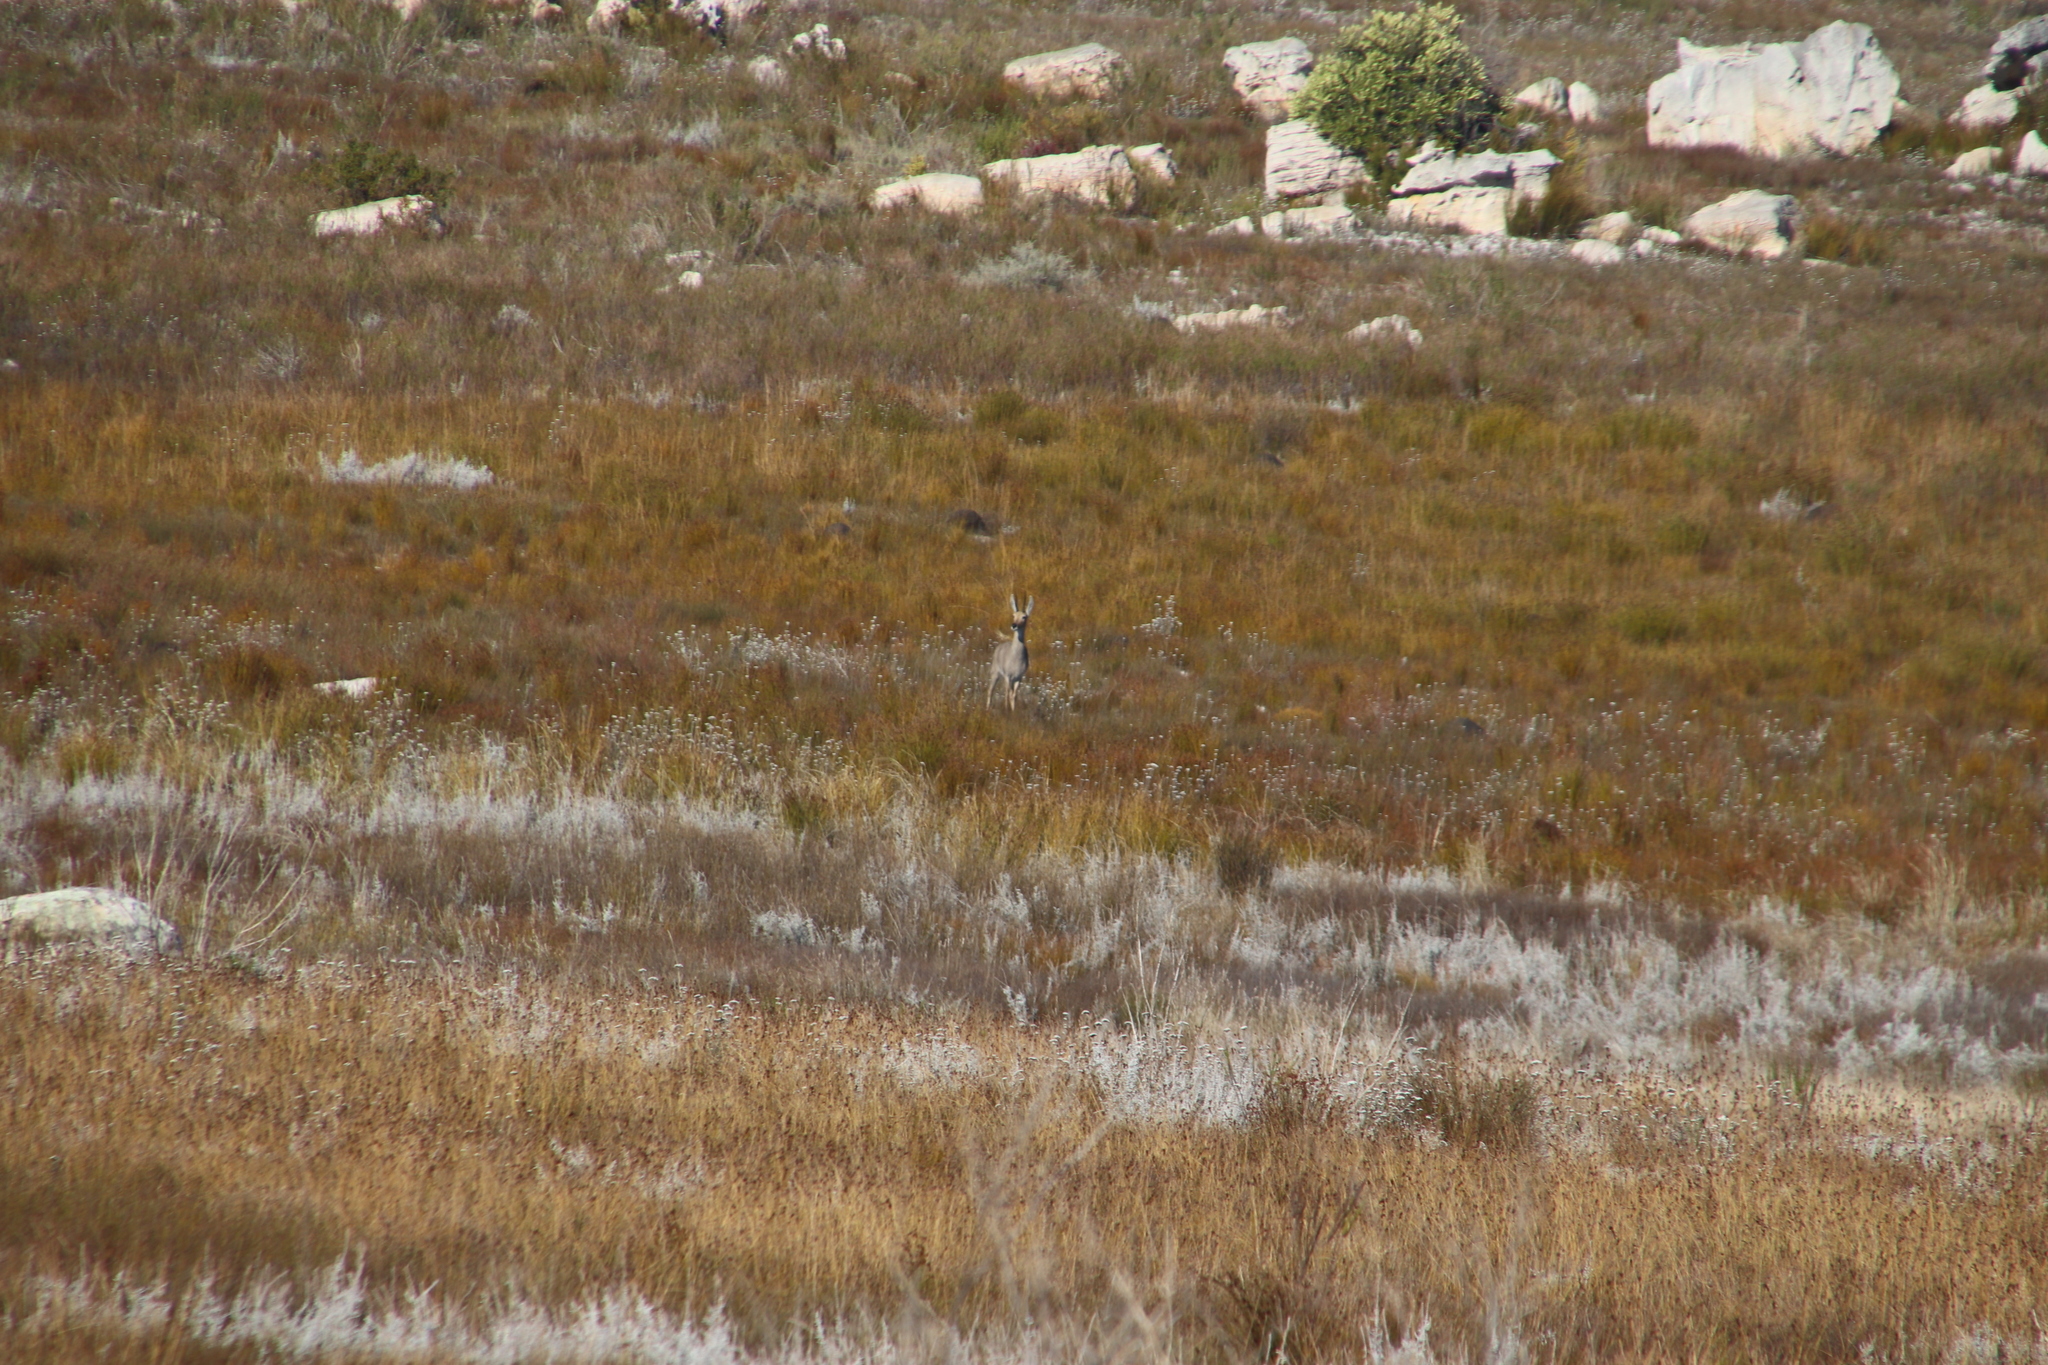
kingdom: Animalia
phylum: Chordata
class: Mammalia
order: Artiodactyla
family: Bovidae
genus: Pelea
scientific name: Pelea capreolus
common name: Common rhebok
